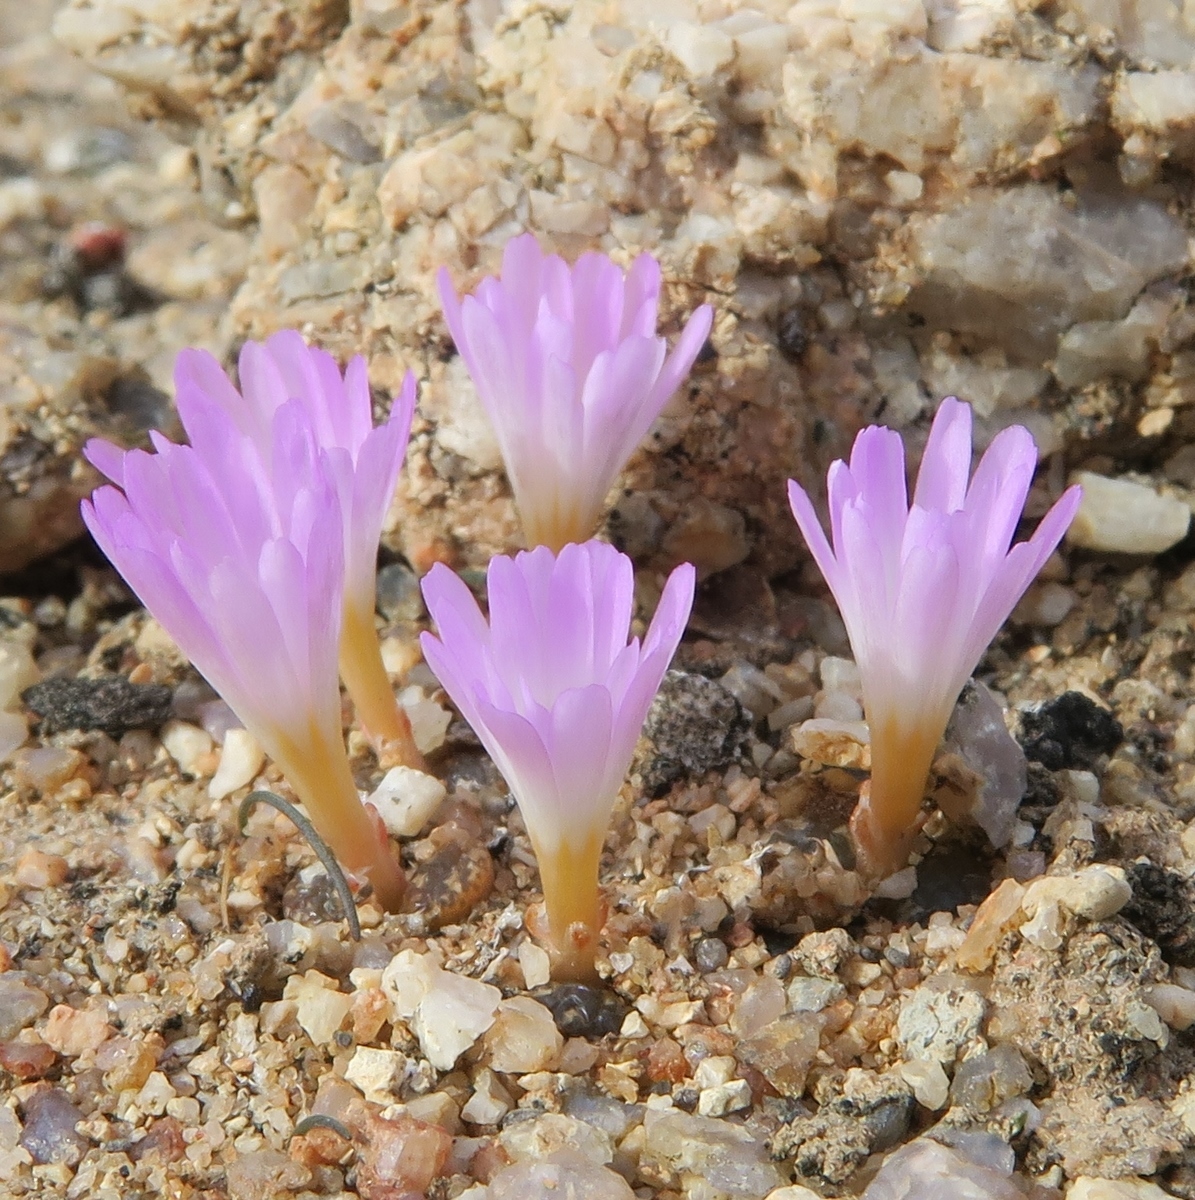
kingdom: Plantae
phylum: Tracheophyta
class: Magnoliopsida
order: Caryophyllales
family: Aizoaceae
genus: Conophytum
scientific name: Conophytum pellucidum
